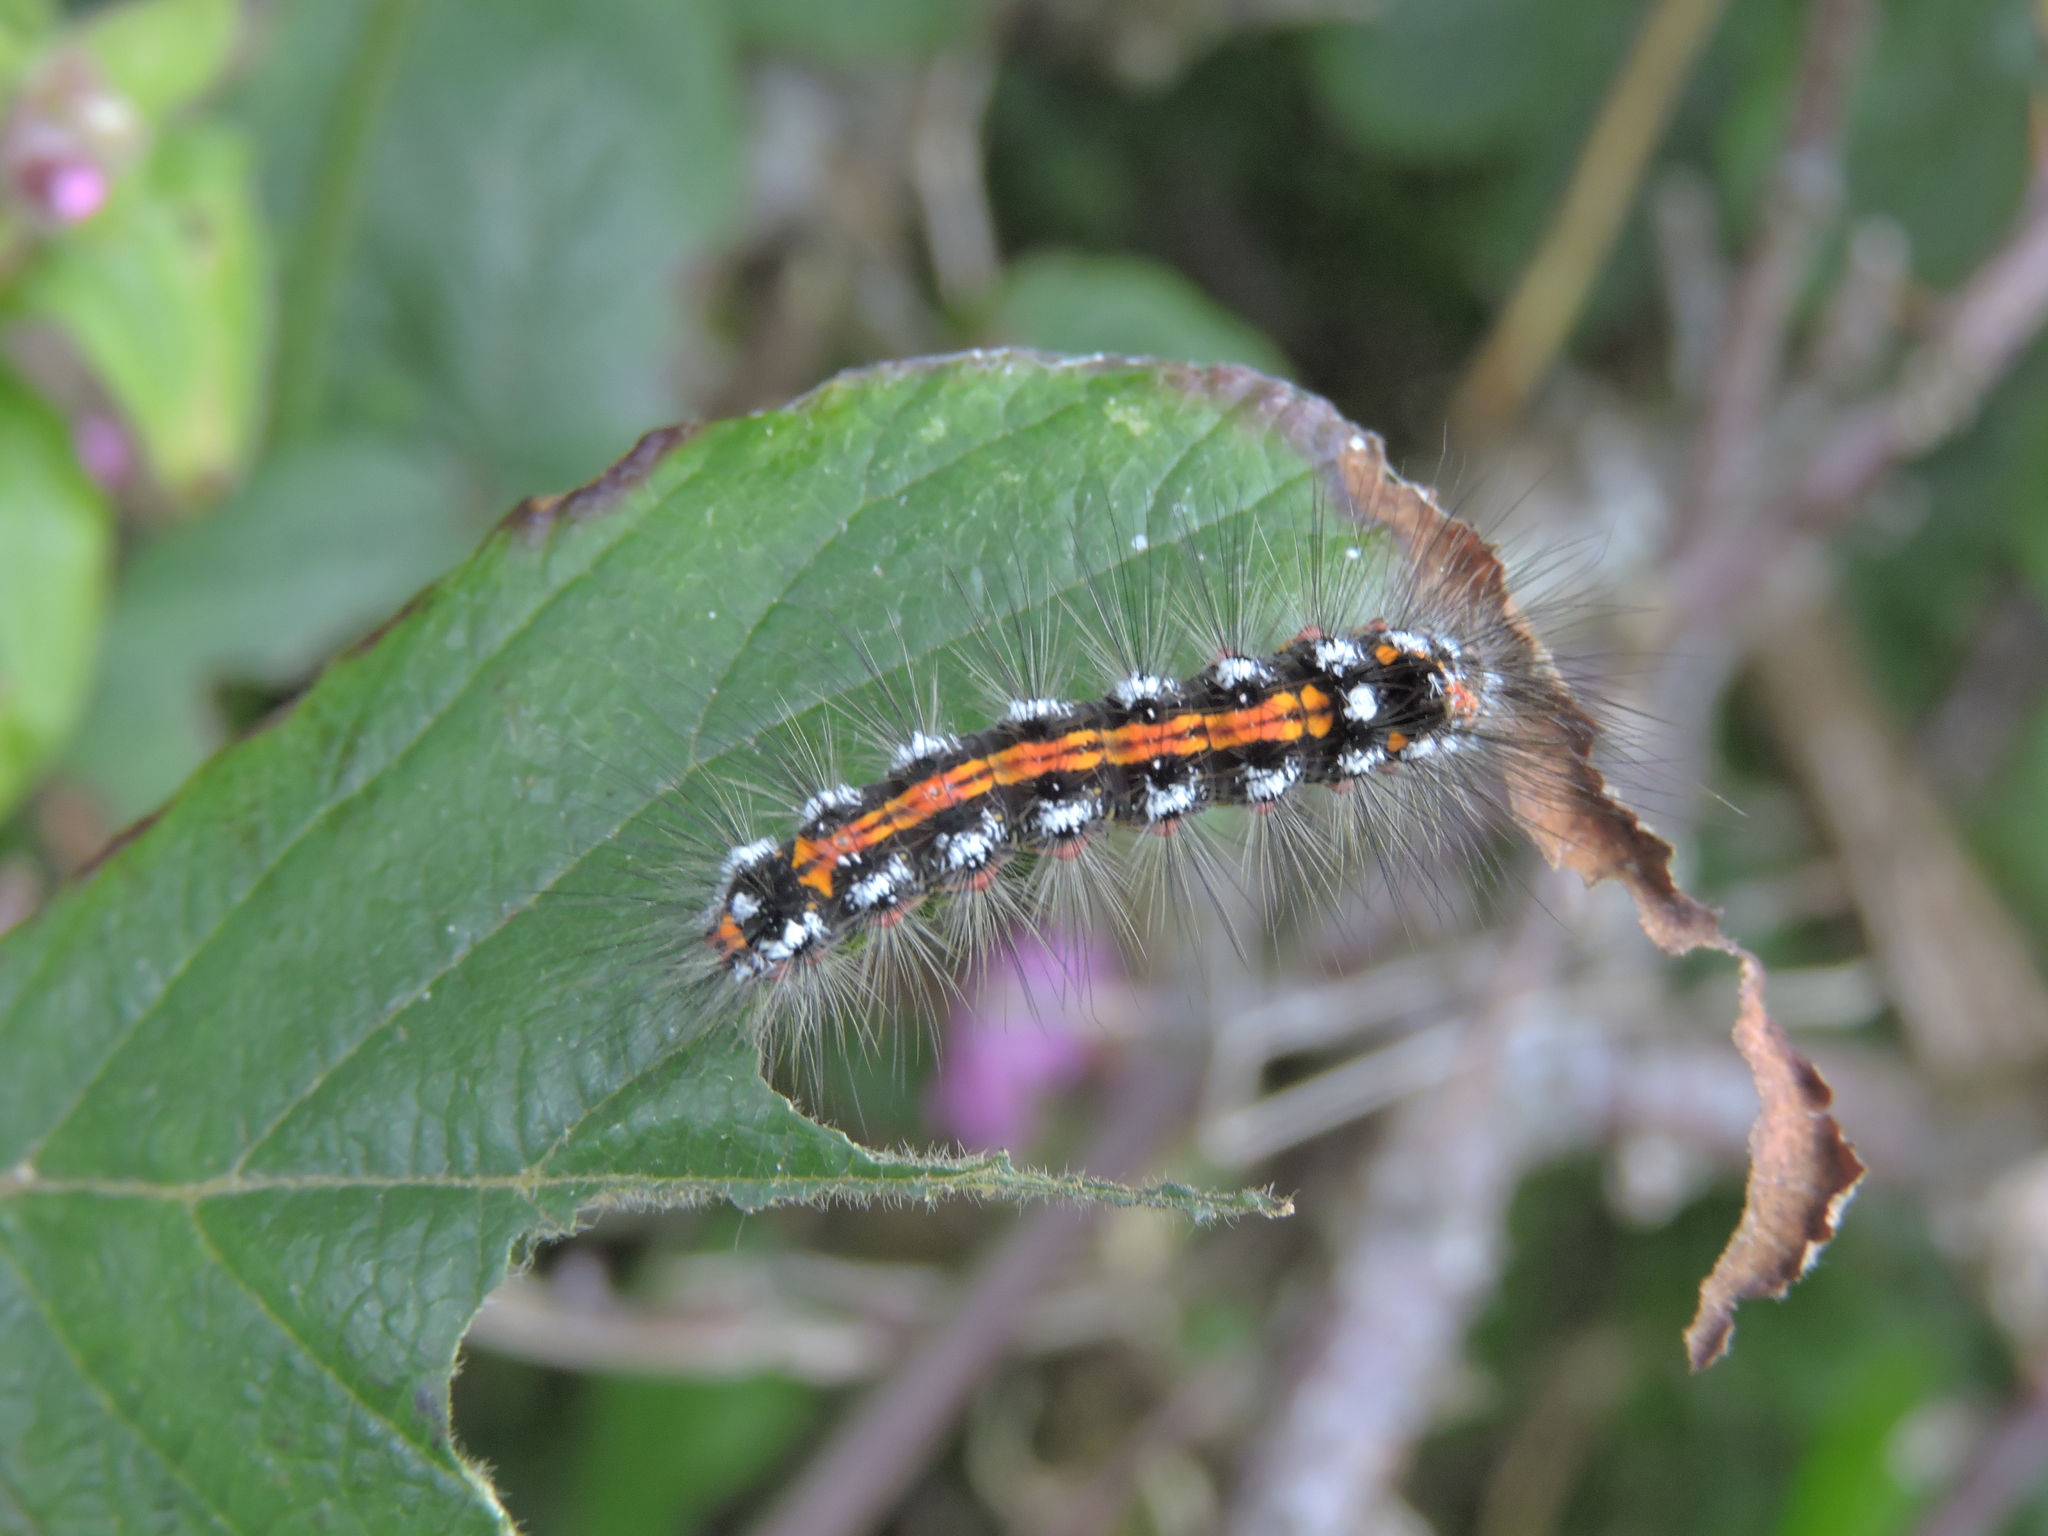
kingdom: Animalia
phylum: Arthropoda
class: Insecta
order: Lepidoptera
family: Erebidae
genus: Sphrageidus
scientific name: Sphrageidus similis
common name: Yellow-tail
